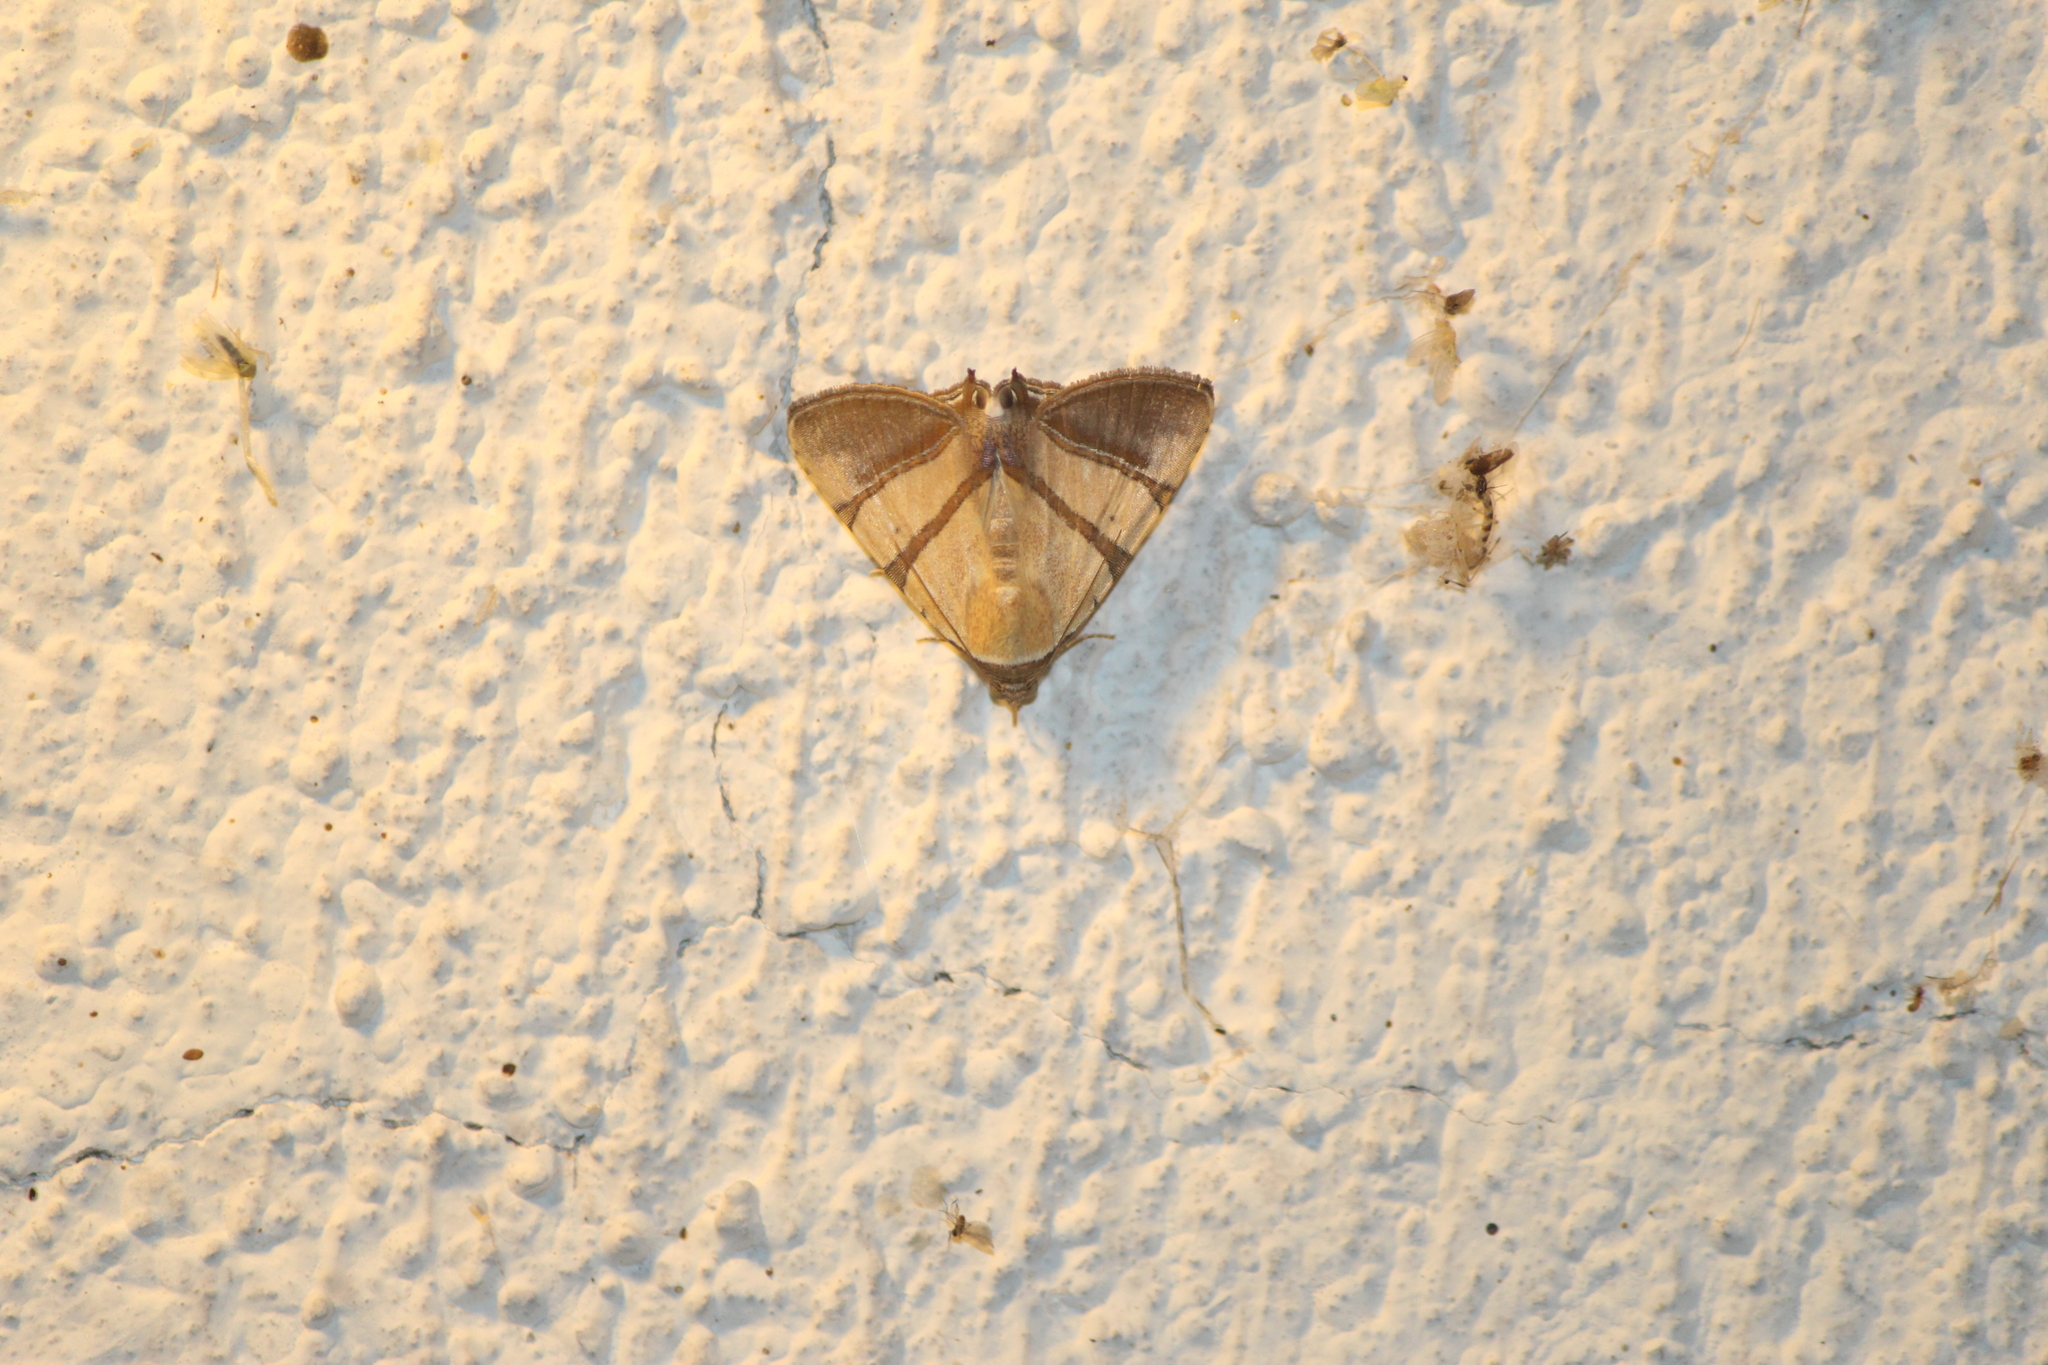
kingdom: Animalia
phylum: Arthropoda
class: Insecta
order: Lepidoptera
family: Erebidae
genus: Eulepidotis
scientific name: Eulepidotis julianata
